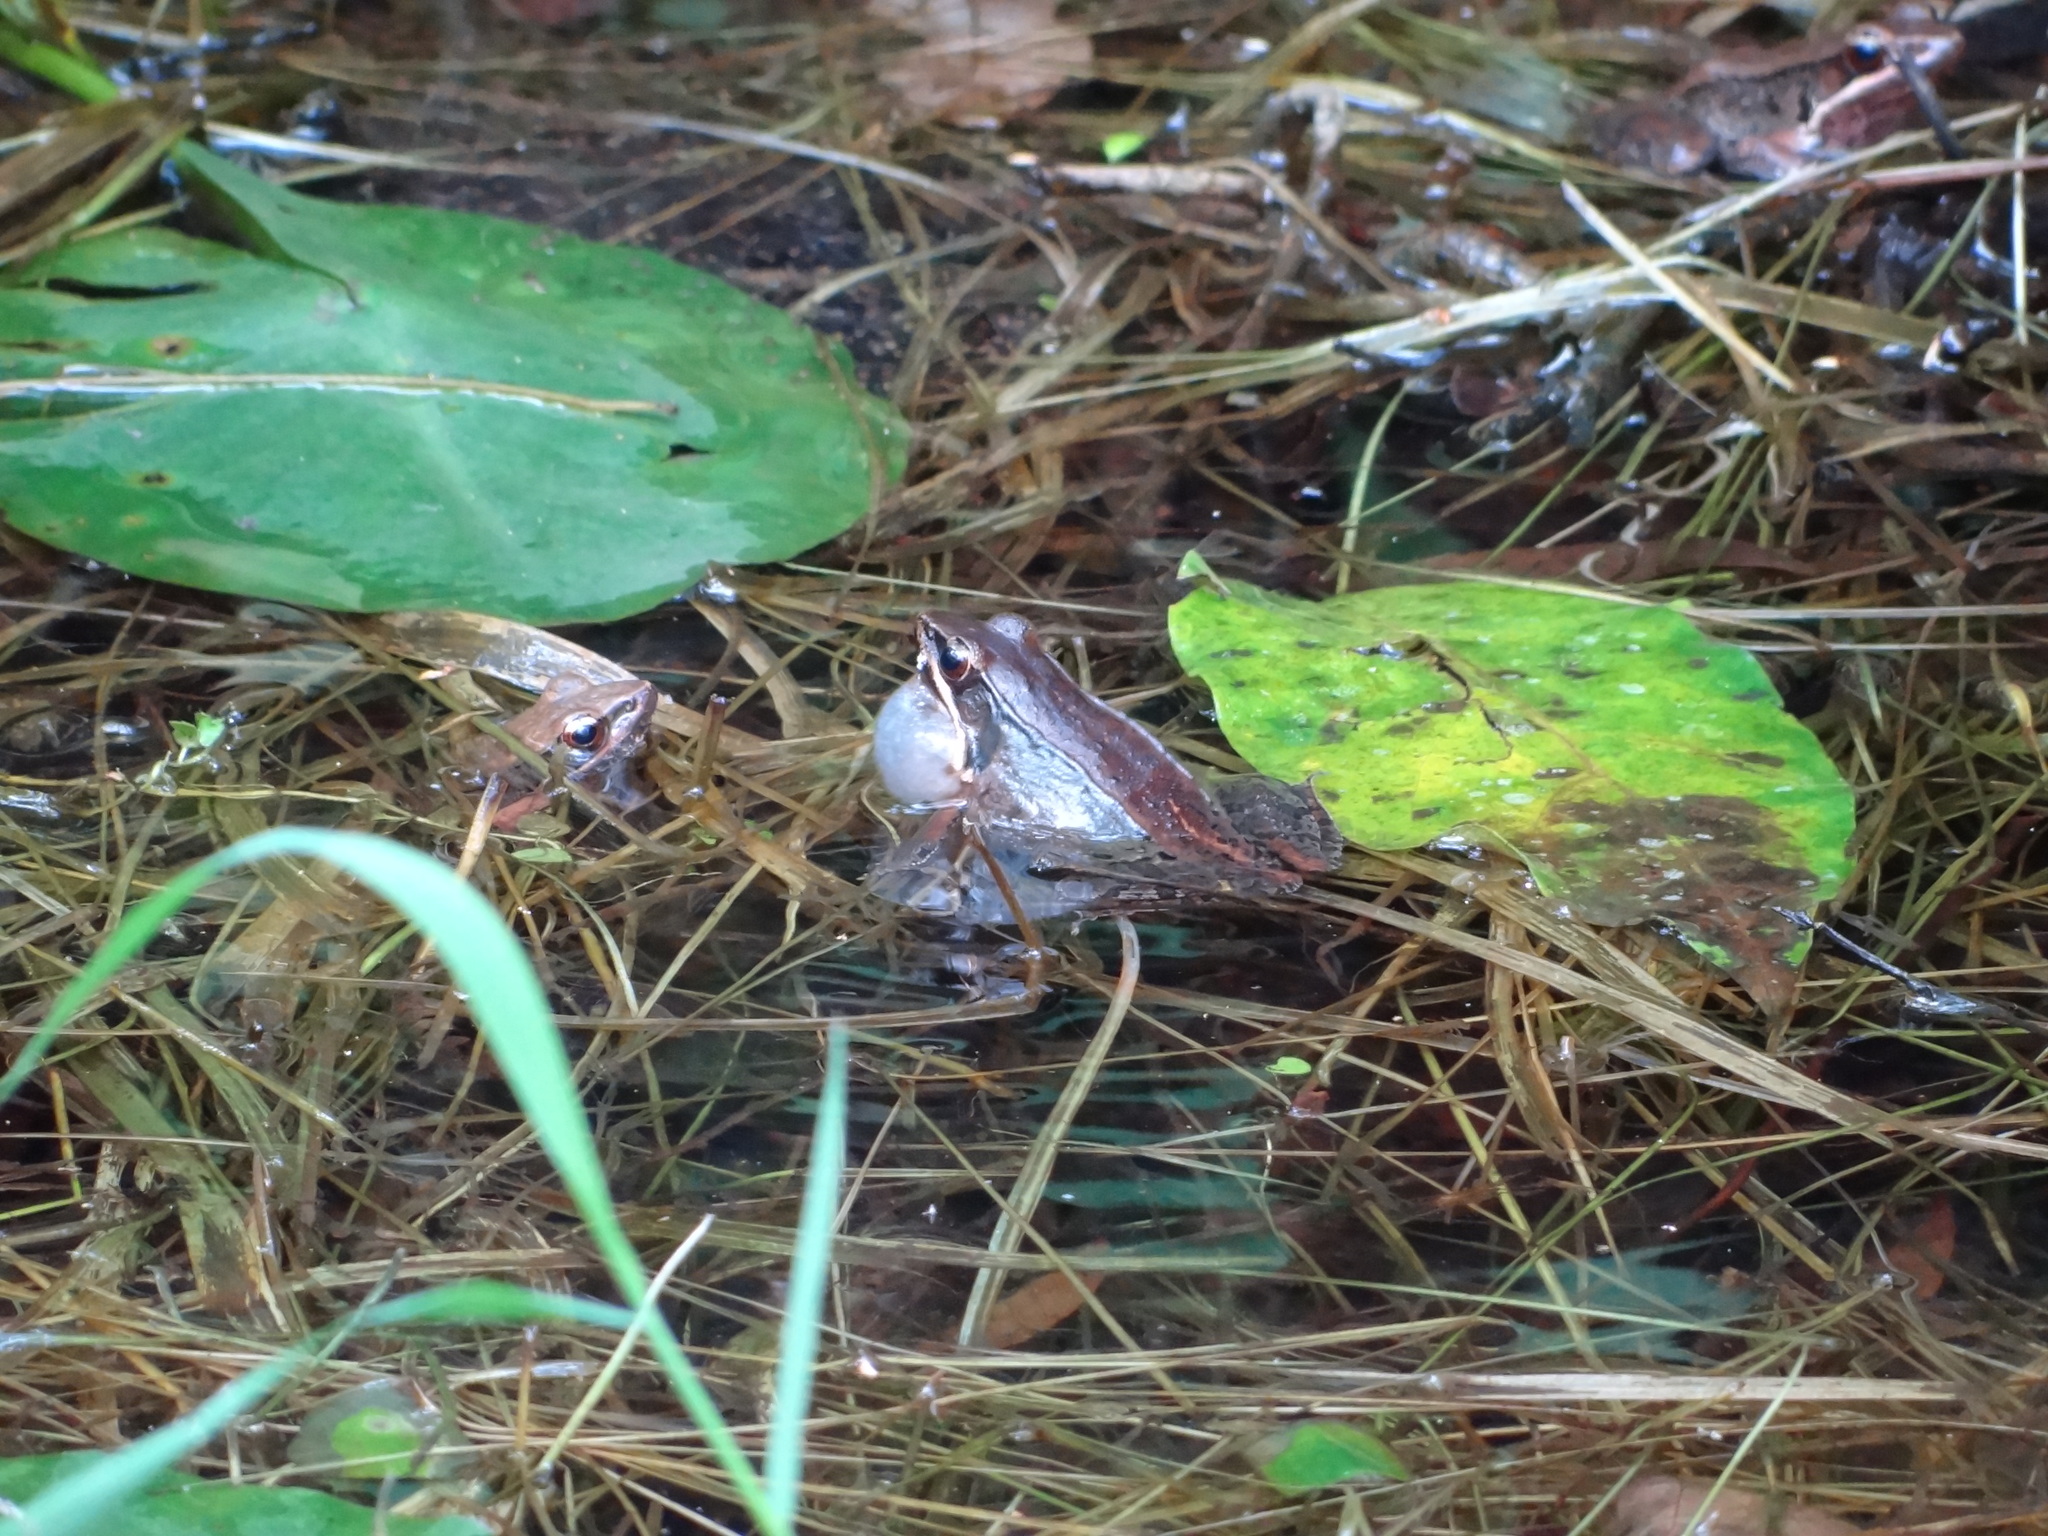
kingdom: Animalia
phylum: Chordata
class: Amphibia
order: Anura
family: Ranidae
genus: Nidirana
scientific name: Nidirana adenopleura
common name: Olive frog
